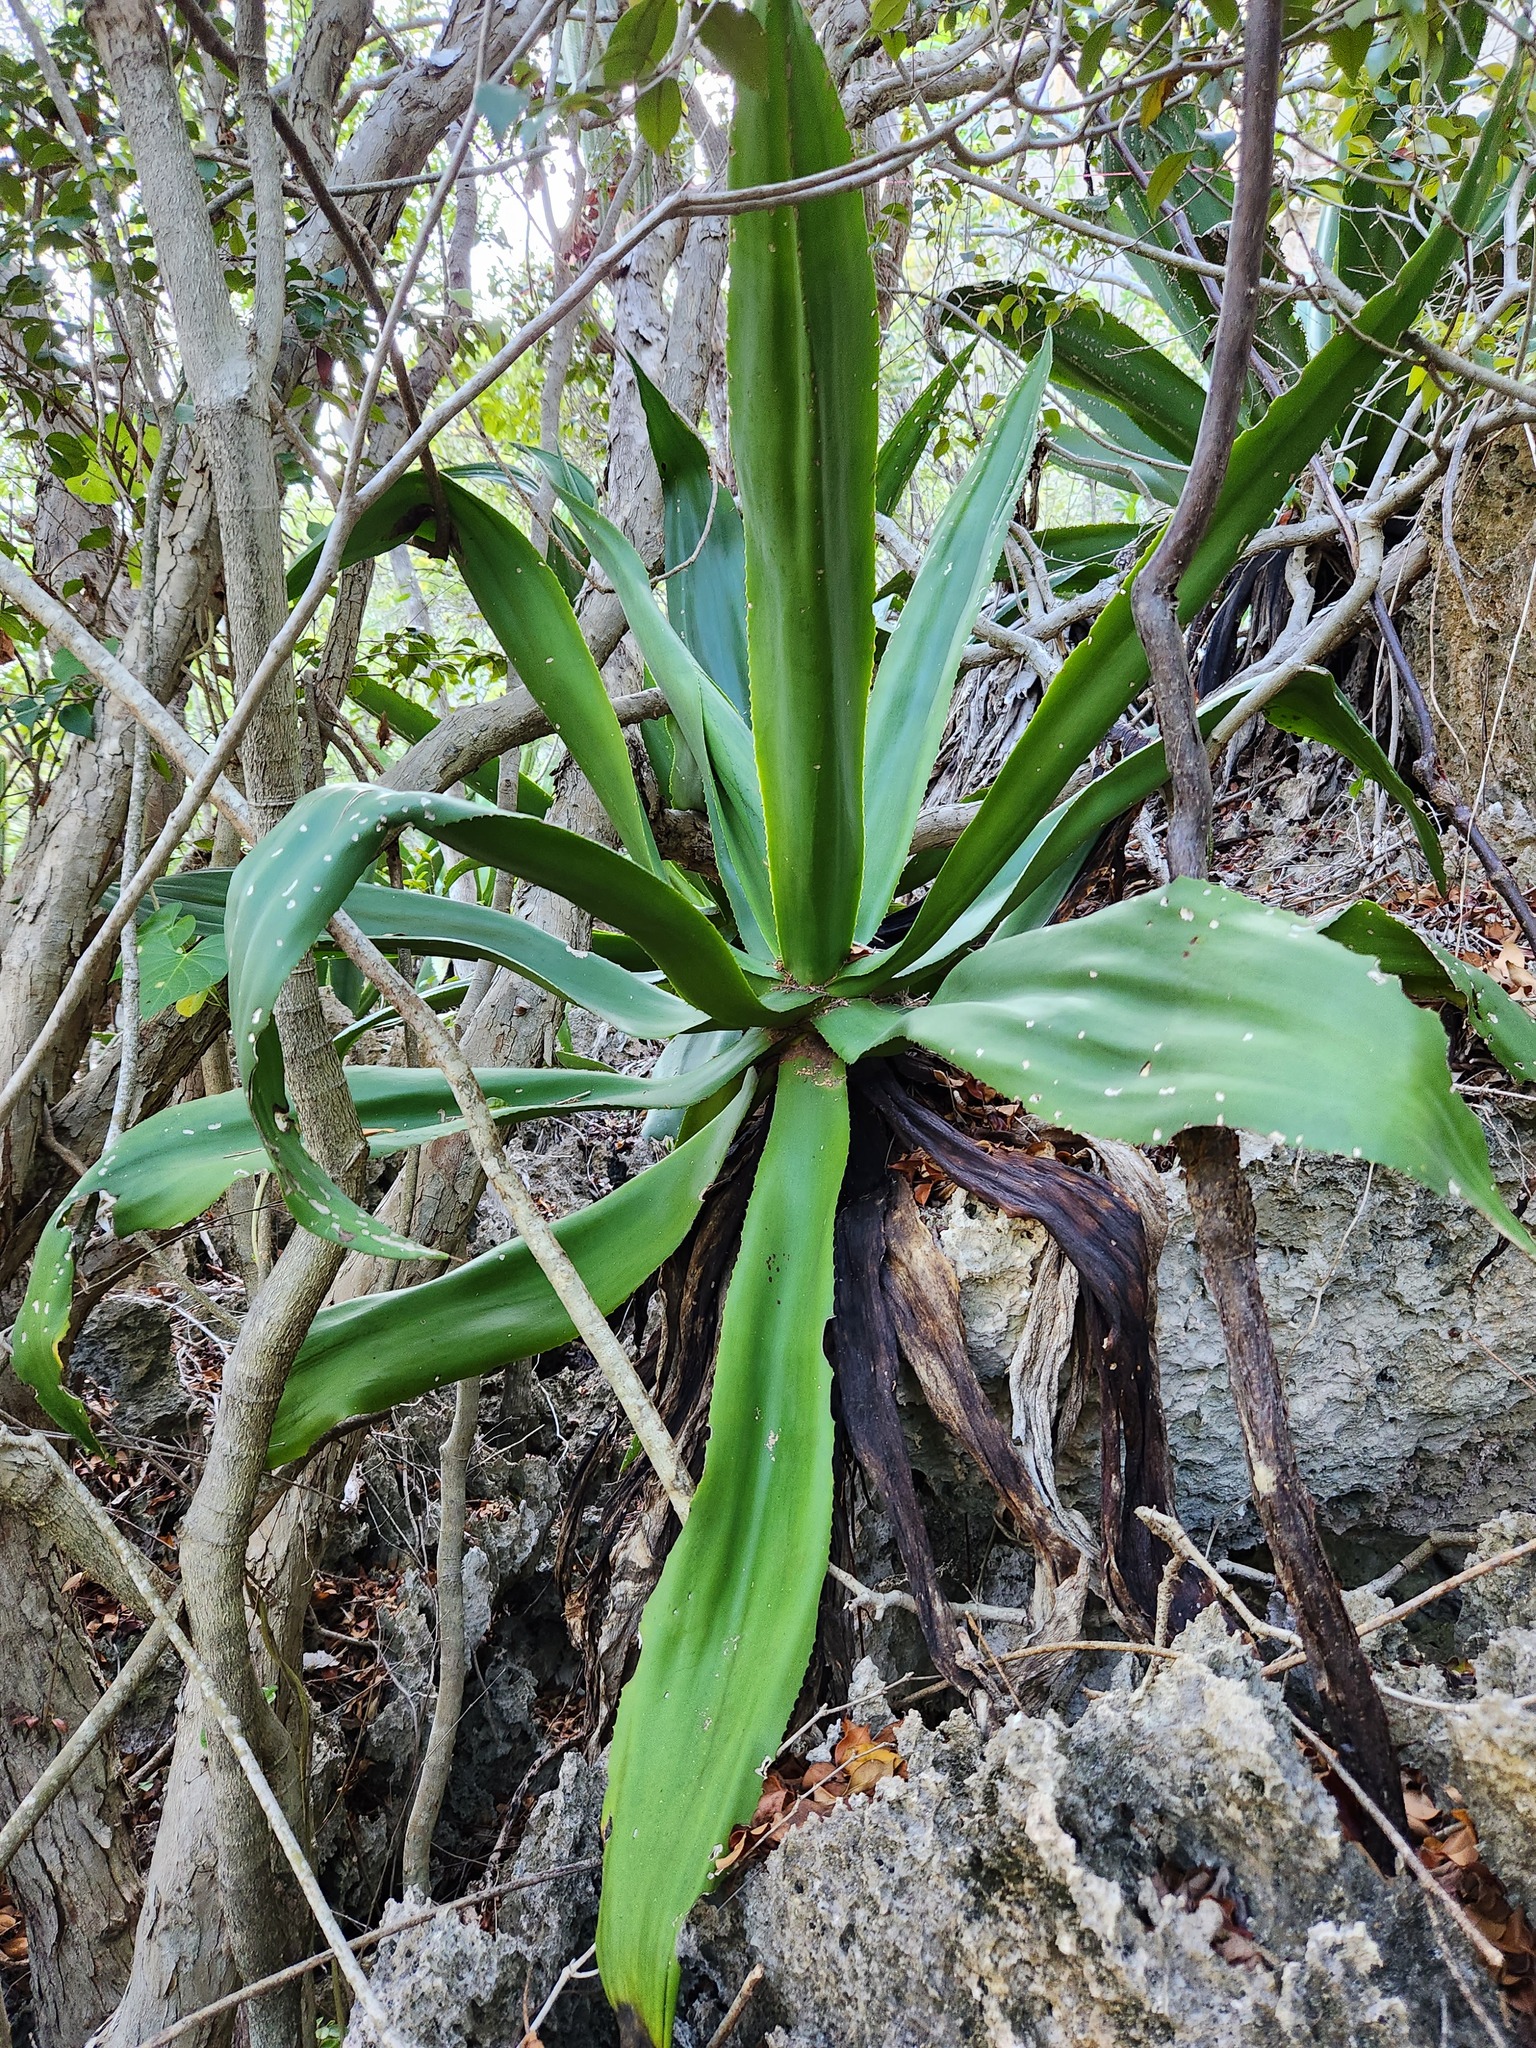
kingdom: Plantae
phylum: Tracheophyta
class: Liliopsida
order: Asparagales
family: Asparagaceae
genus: Agave
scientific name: Agave caymanensis
